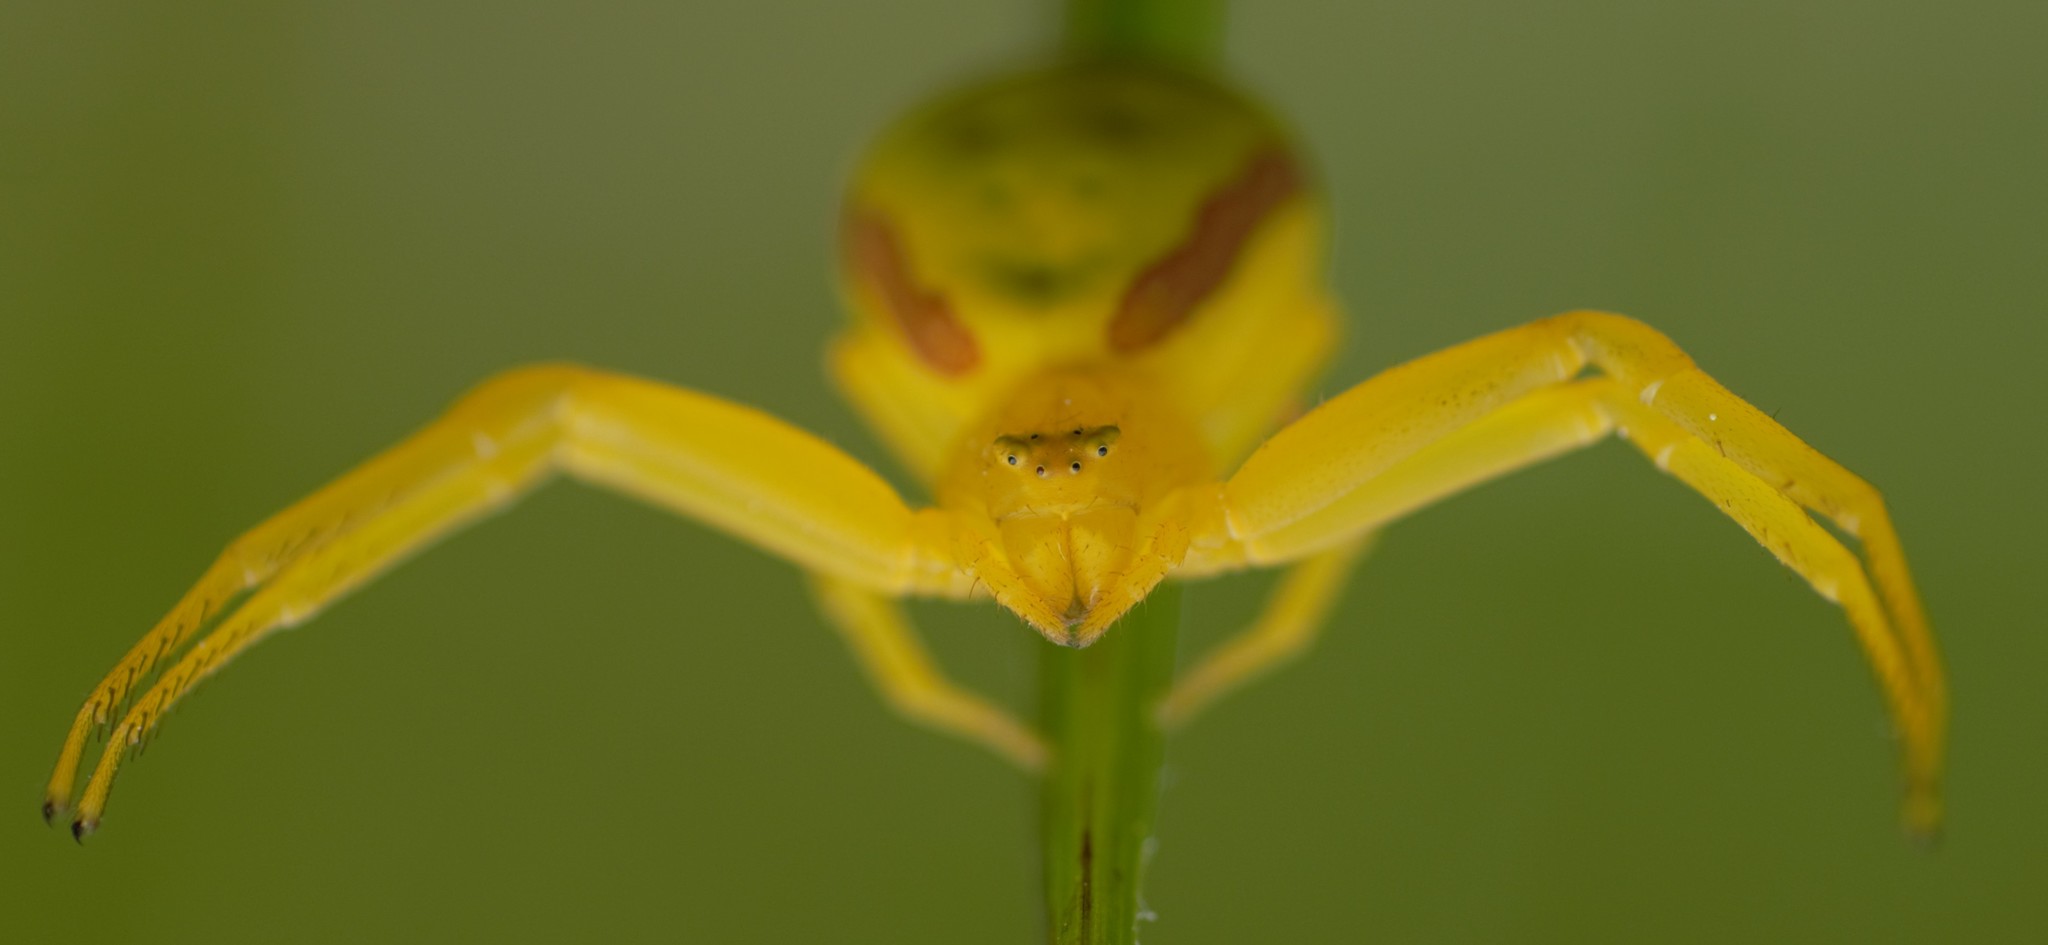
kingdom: Animalia
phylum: Arthropoda
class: Arachnida
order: Araneae
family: Thomisidae
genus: Misumena
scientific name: Misumena vatia
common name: Goldenrod crab spider
